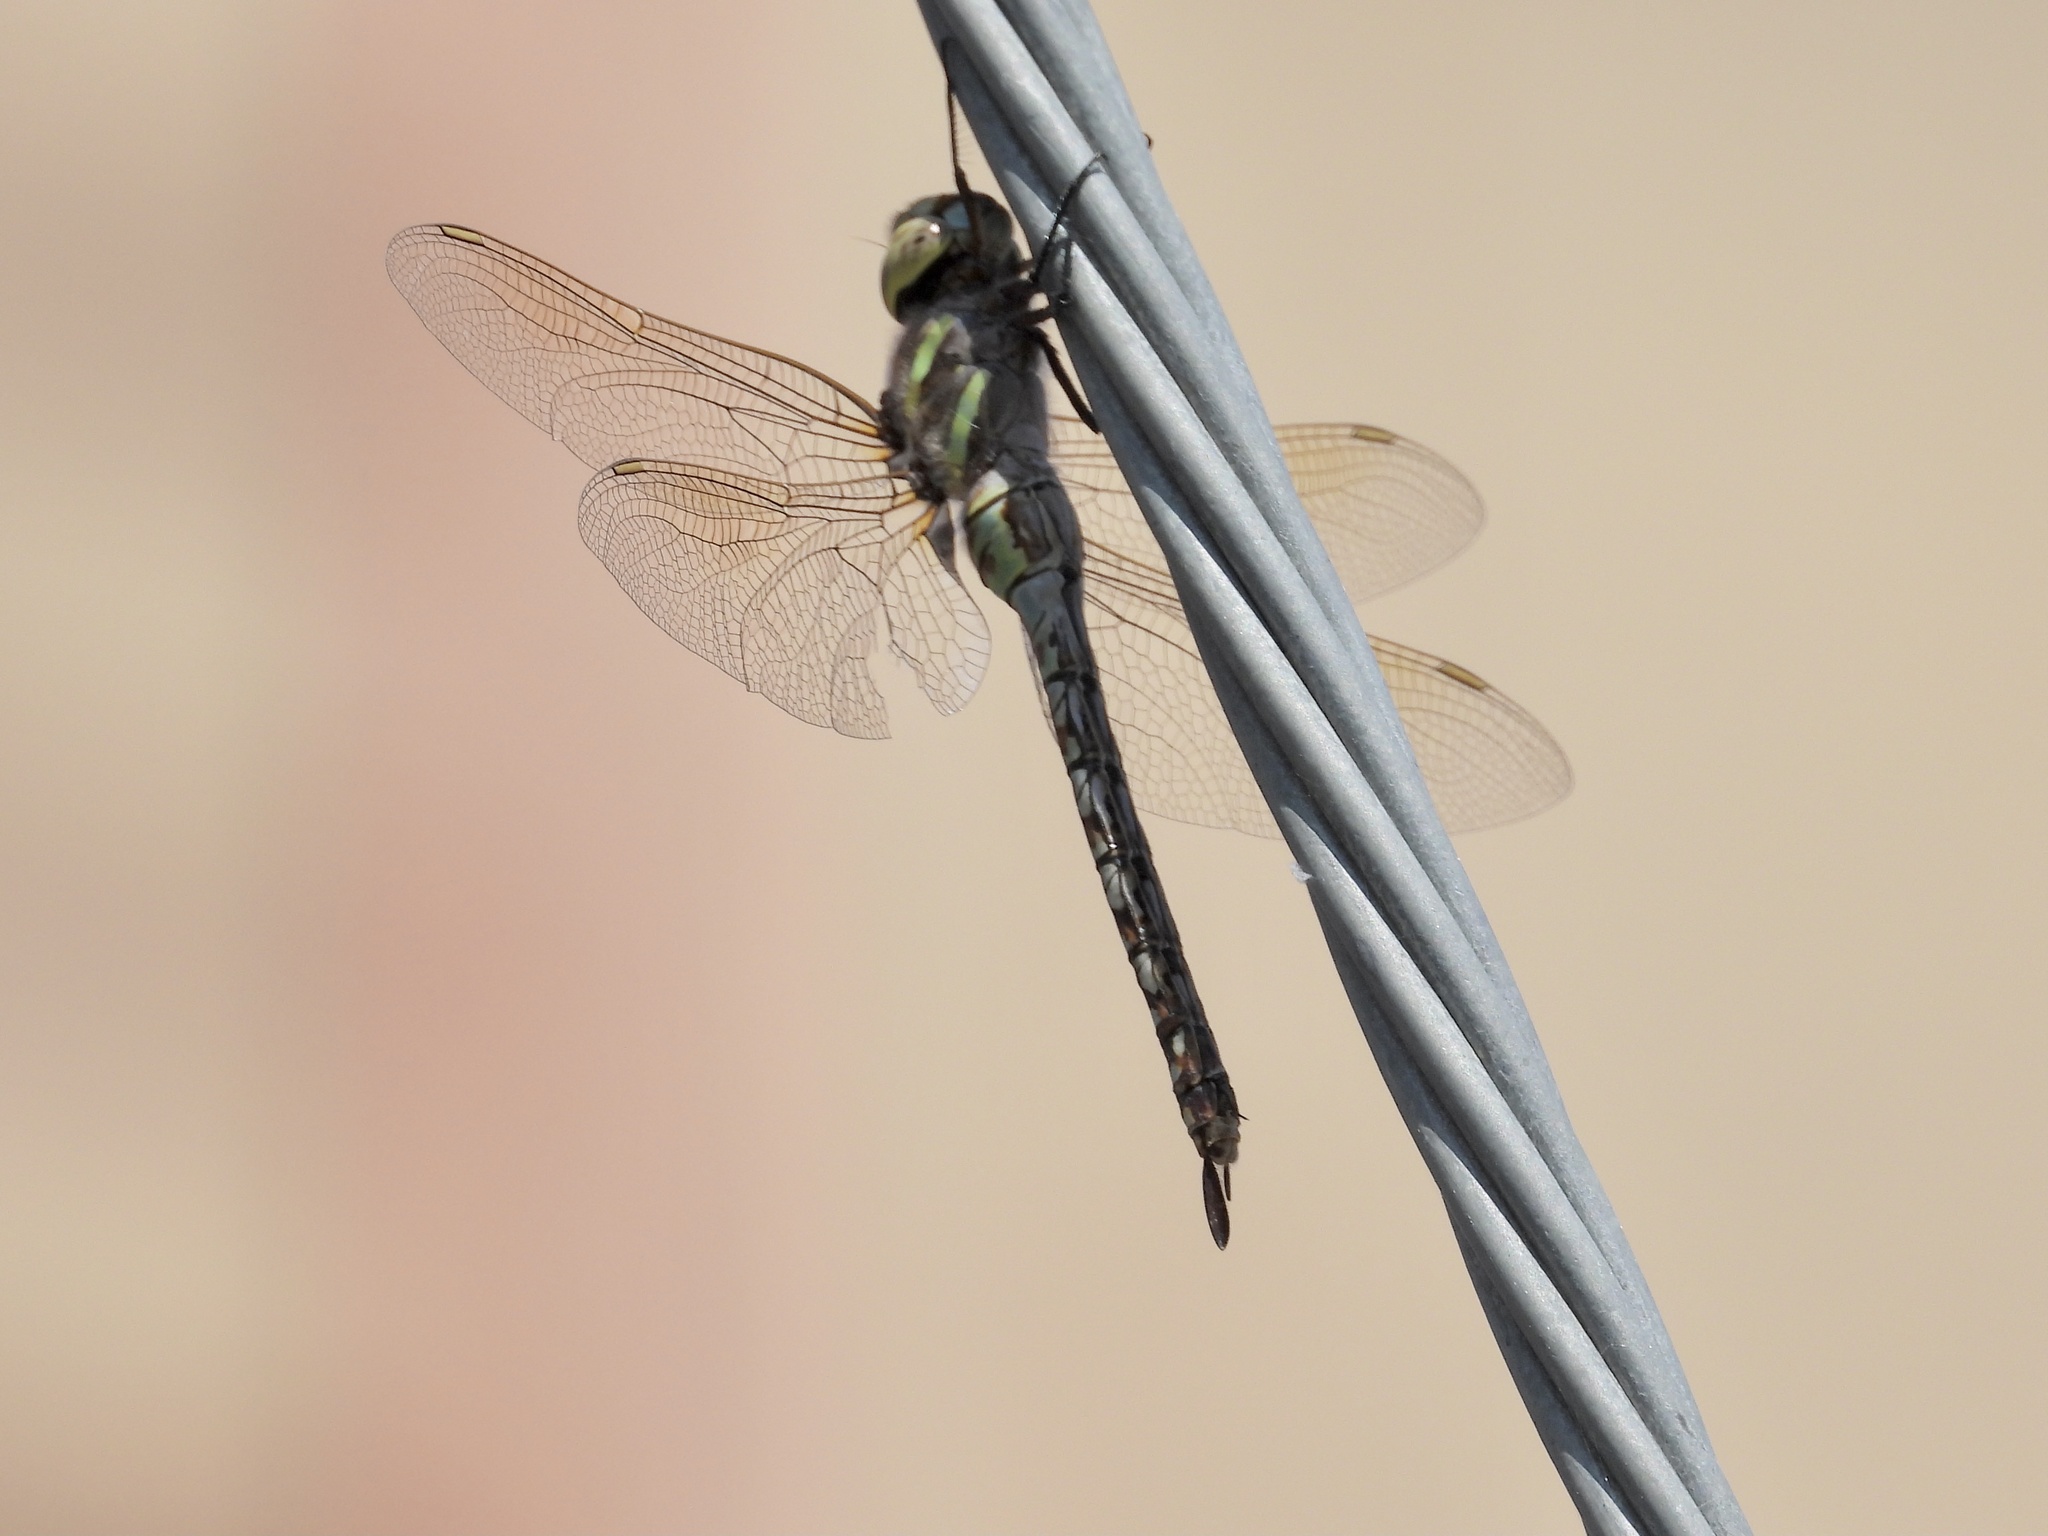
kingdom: Animalia
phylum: Arthropoda
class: Insecta
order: Odonata
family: Aeshnidae
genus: Rhionaeschna
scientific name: Rhionaeschna multicolor
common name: Blue-eyed darner
